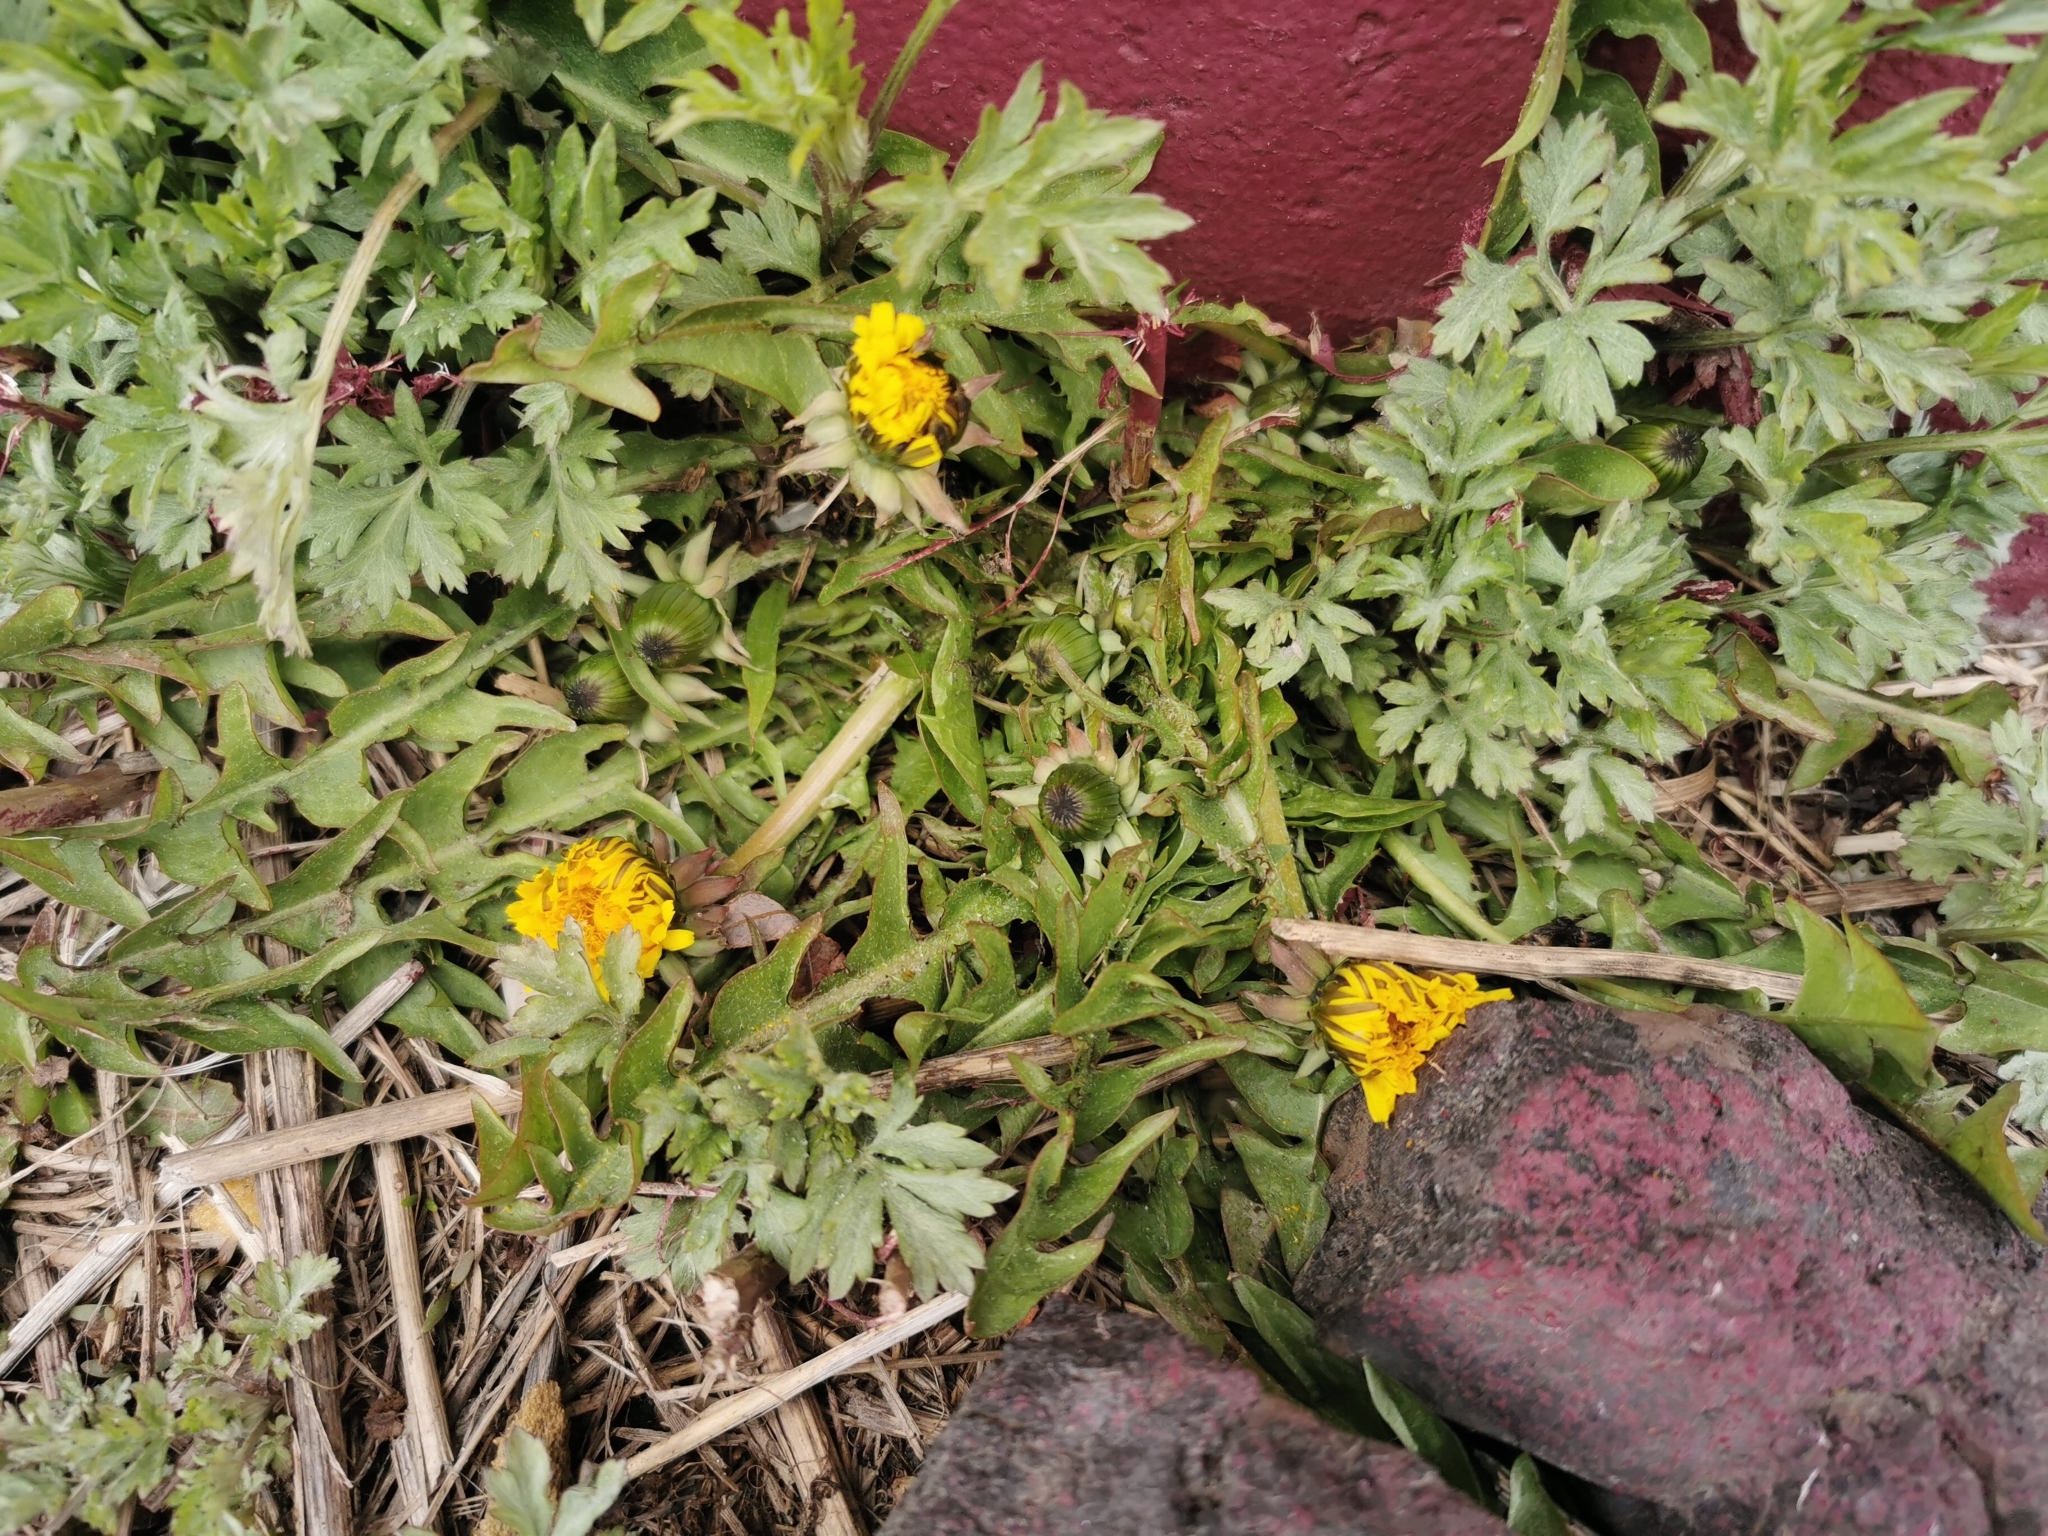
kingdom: Plantae
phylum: Tracheophyta
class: Magnoliopsida
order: Asterales
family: Asteraceae
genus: Taraxacum
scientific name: Taraxacum officinale
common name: Common dandelion
